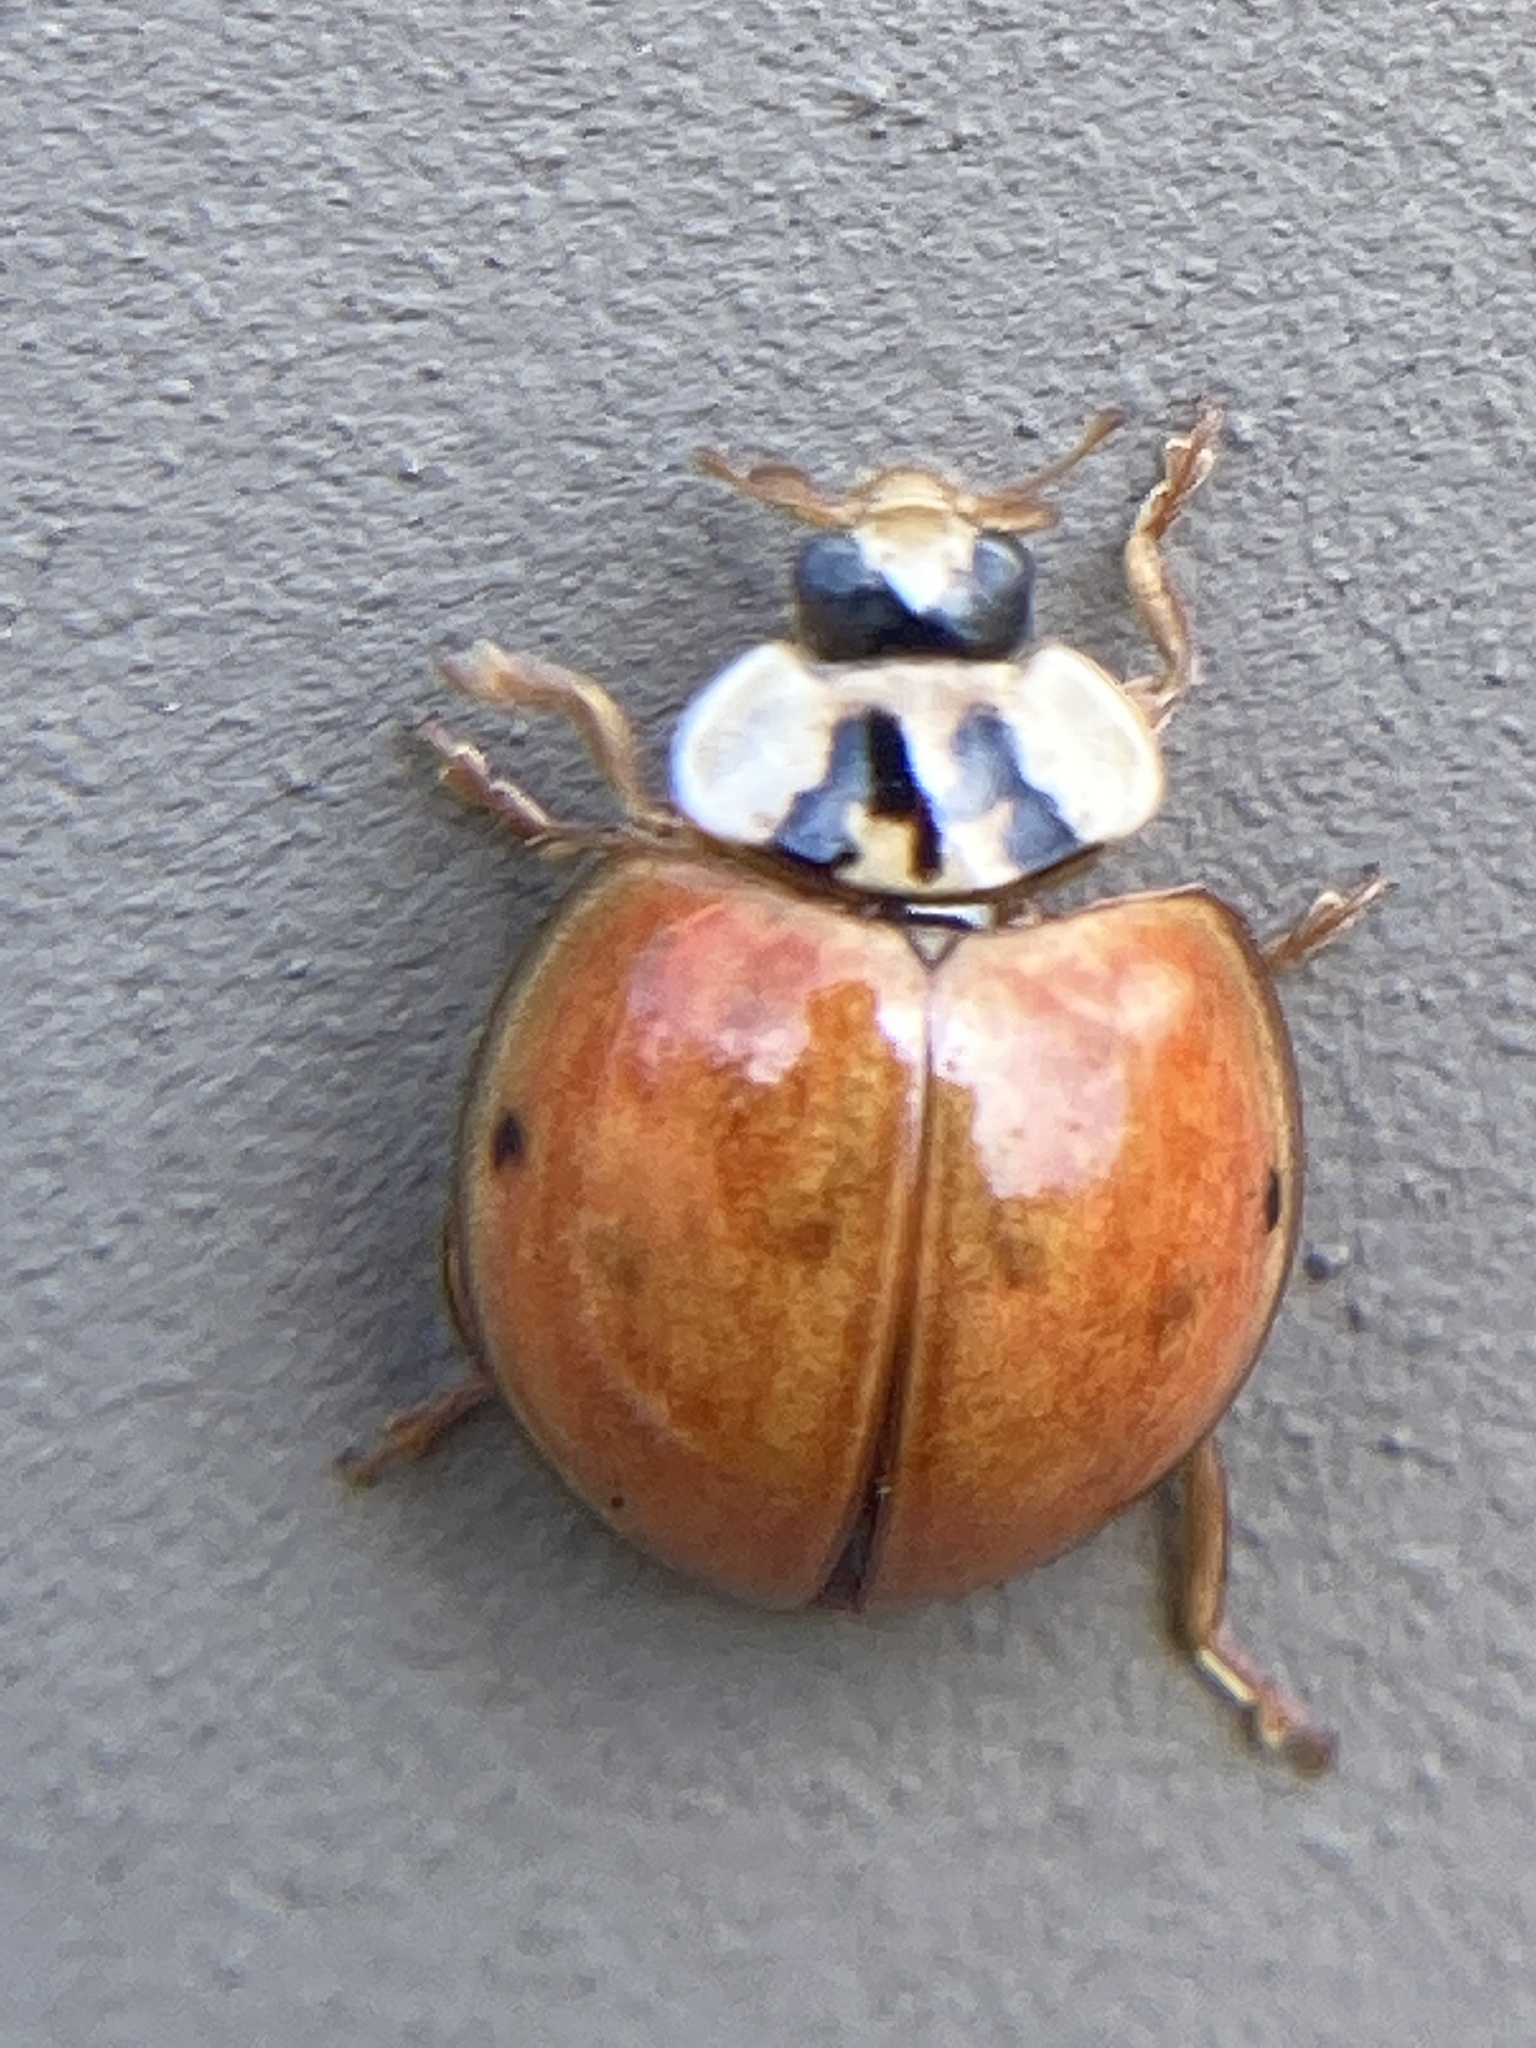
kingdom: Animalia
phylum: Arthropoda
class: Insecta
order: Coleoptera
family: Coccinellidae
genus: Harmonia
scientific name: Harmonia axyridis
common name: Harlequin ladybird
